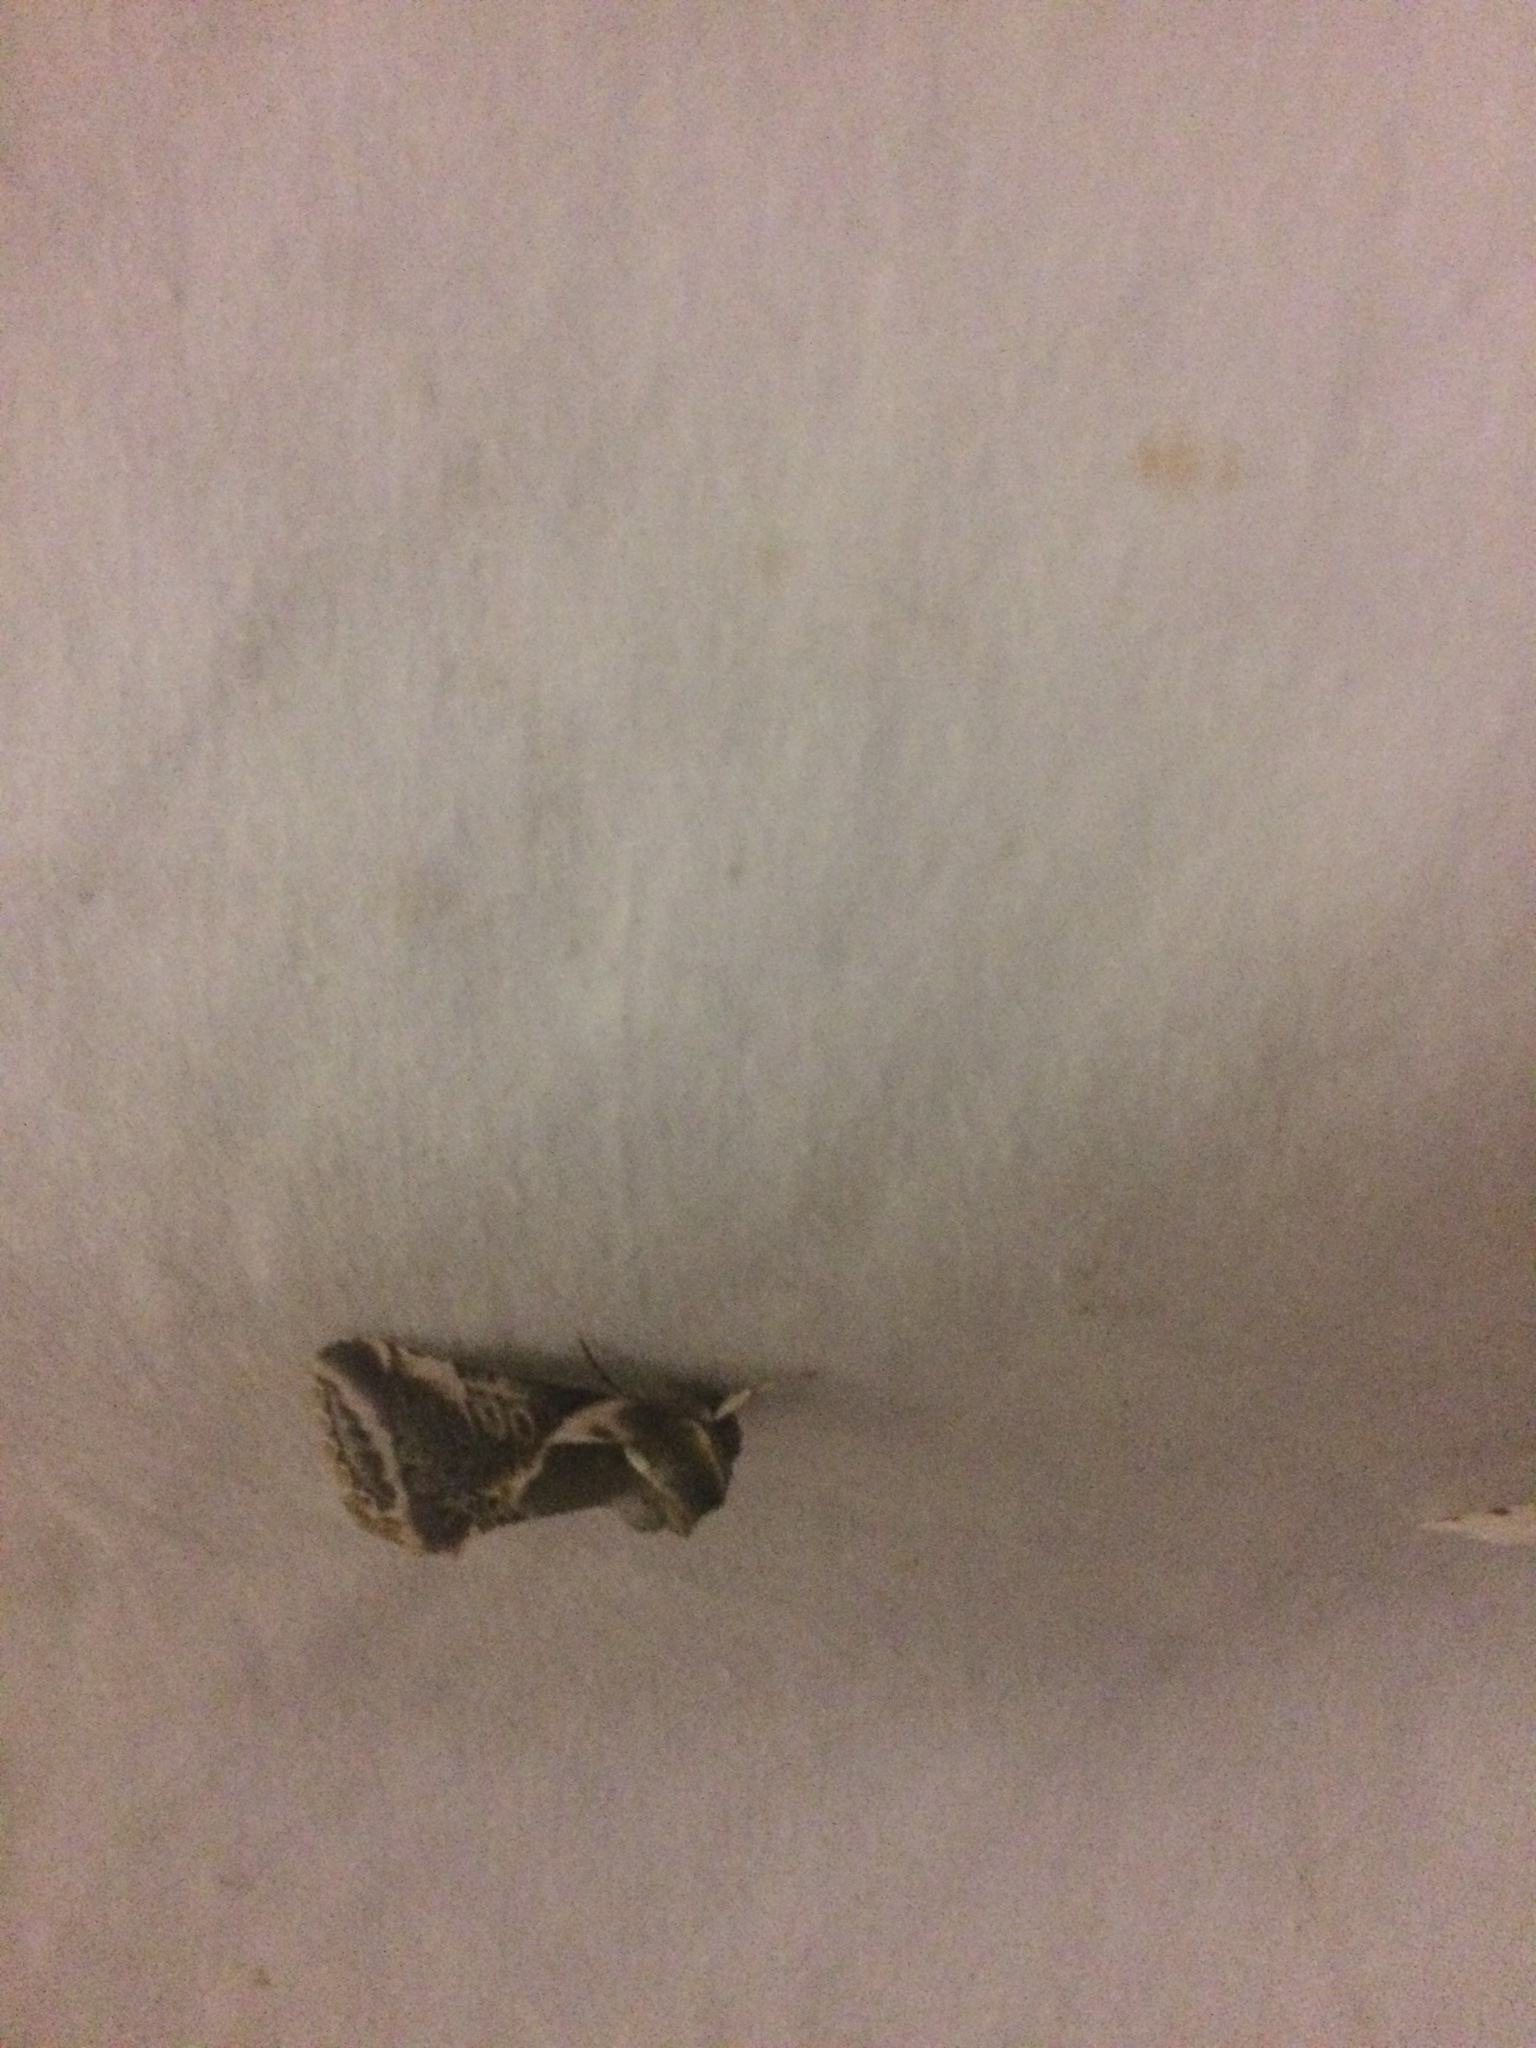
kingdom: Animalia
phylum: Arthropoda
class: Insecta
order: Lepidoptera
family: Drepanidae
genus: Habrosyne
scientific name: Habrosyne scripta
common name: Lettered habrosyne moth
